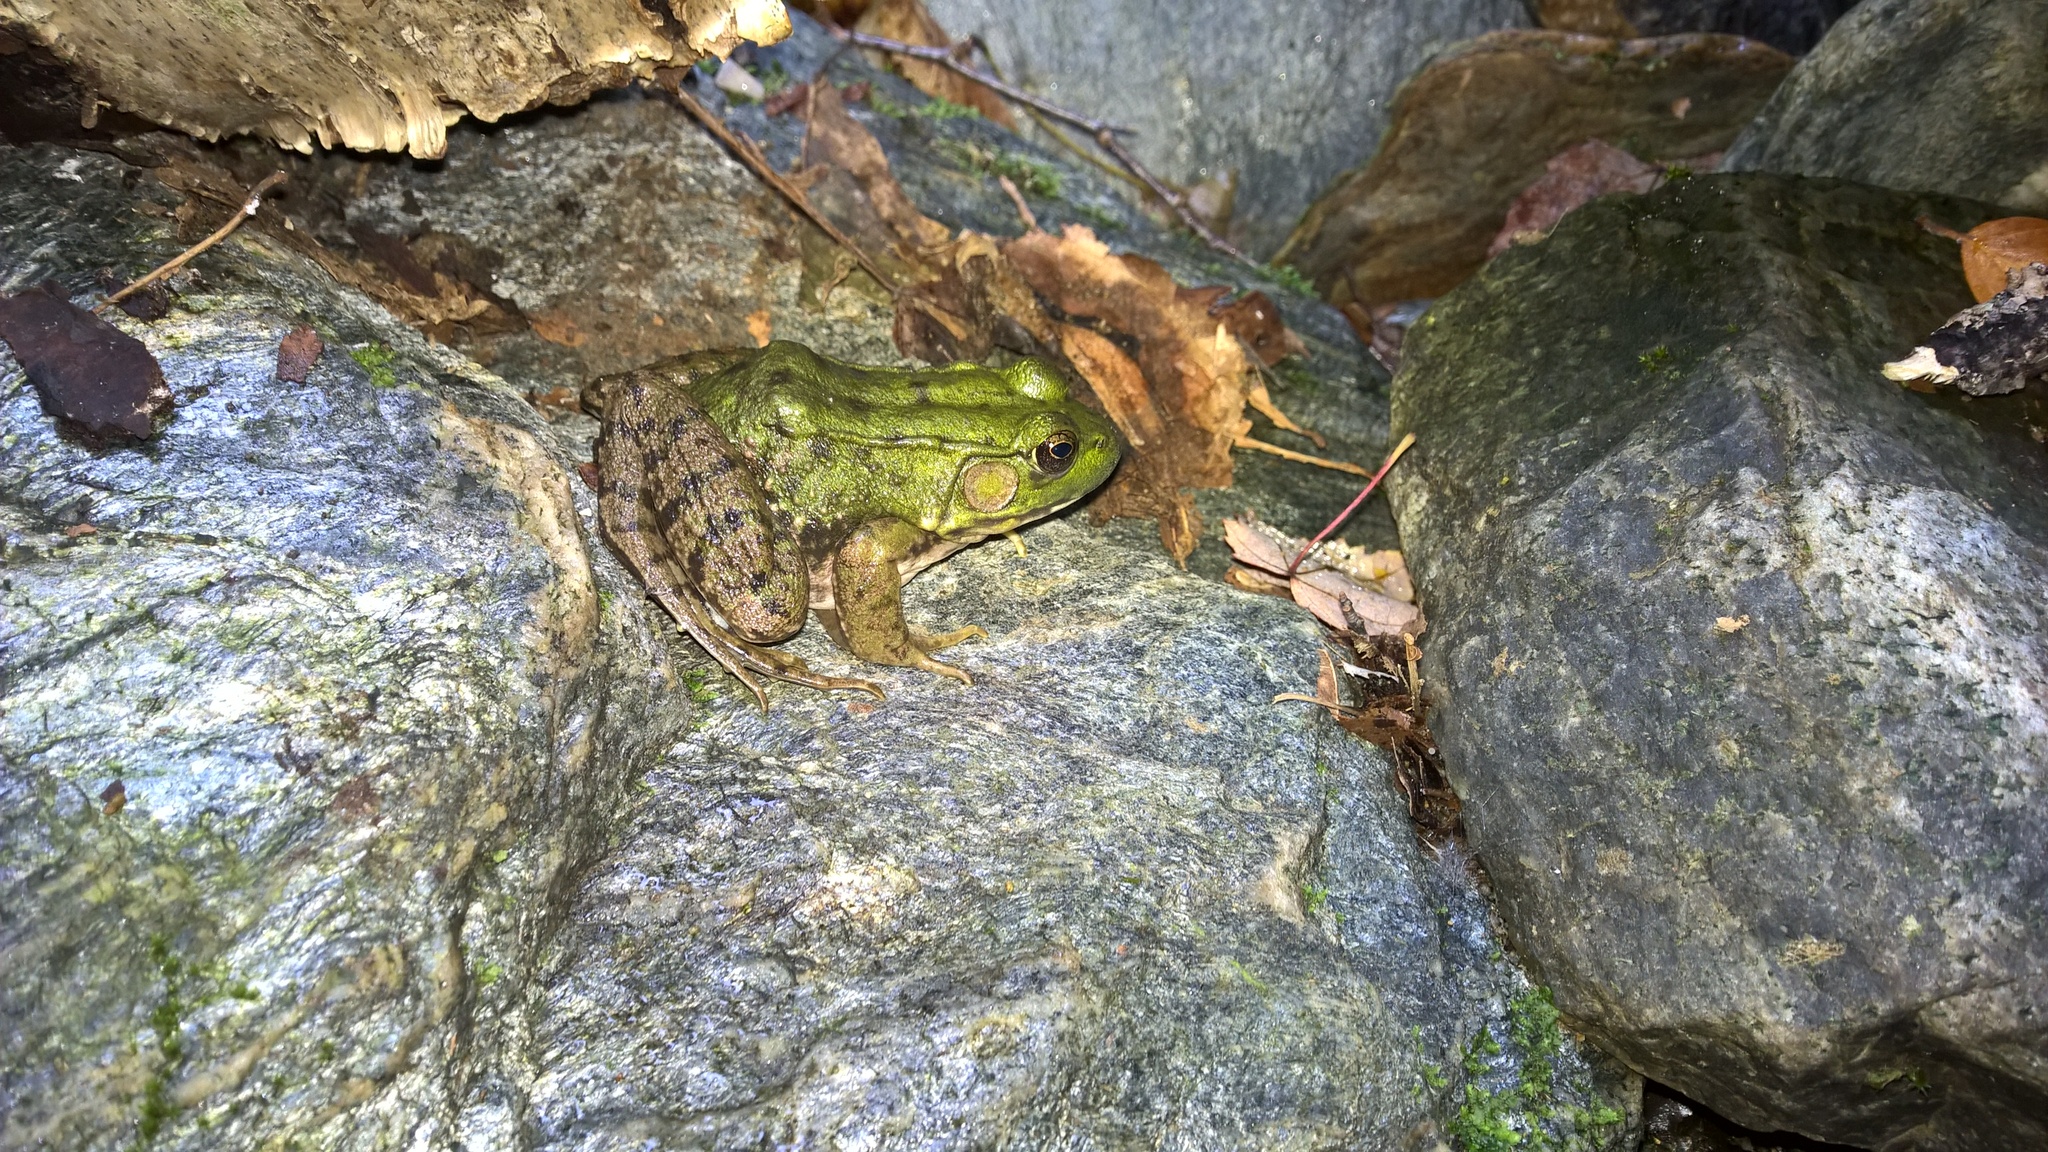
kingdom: Animalia
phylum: Chordata
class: Amphibia
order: Anura
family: Ranidae
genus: Lithobates
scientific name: Lithobates clamitans
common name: Green frog
